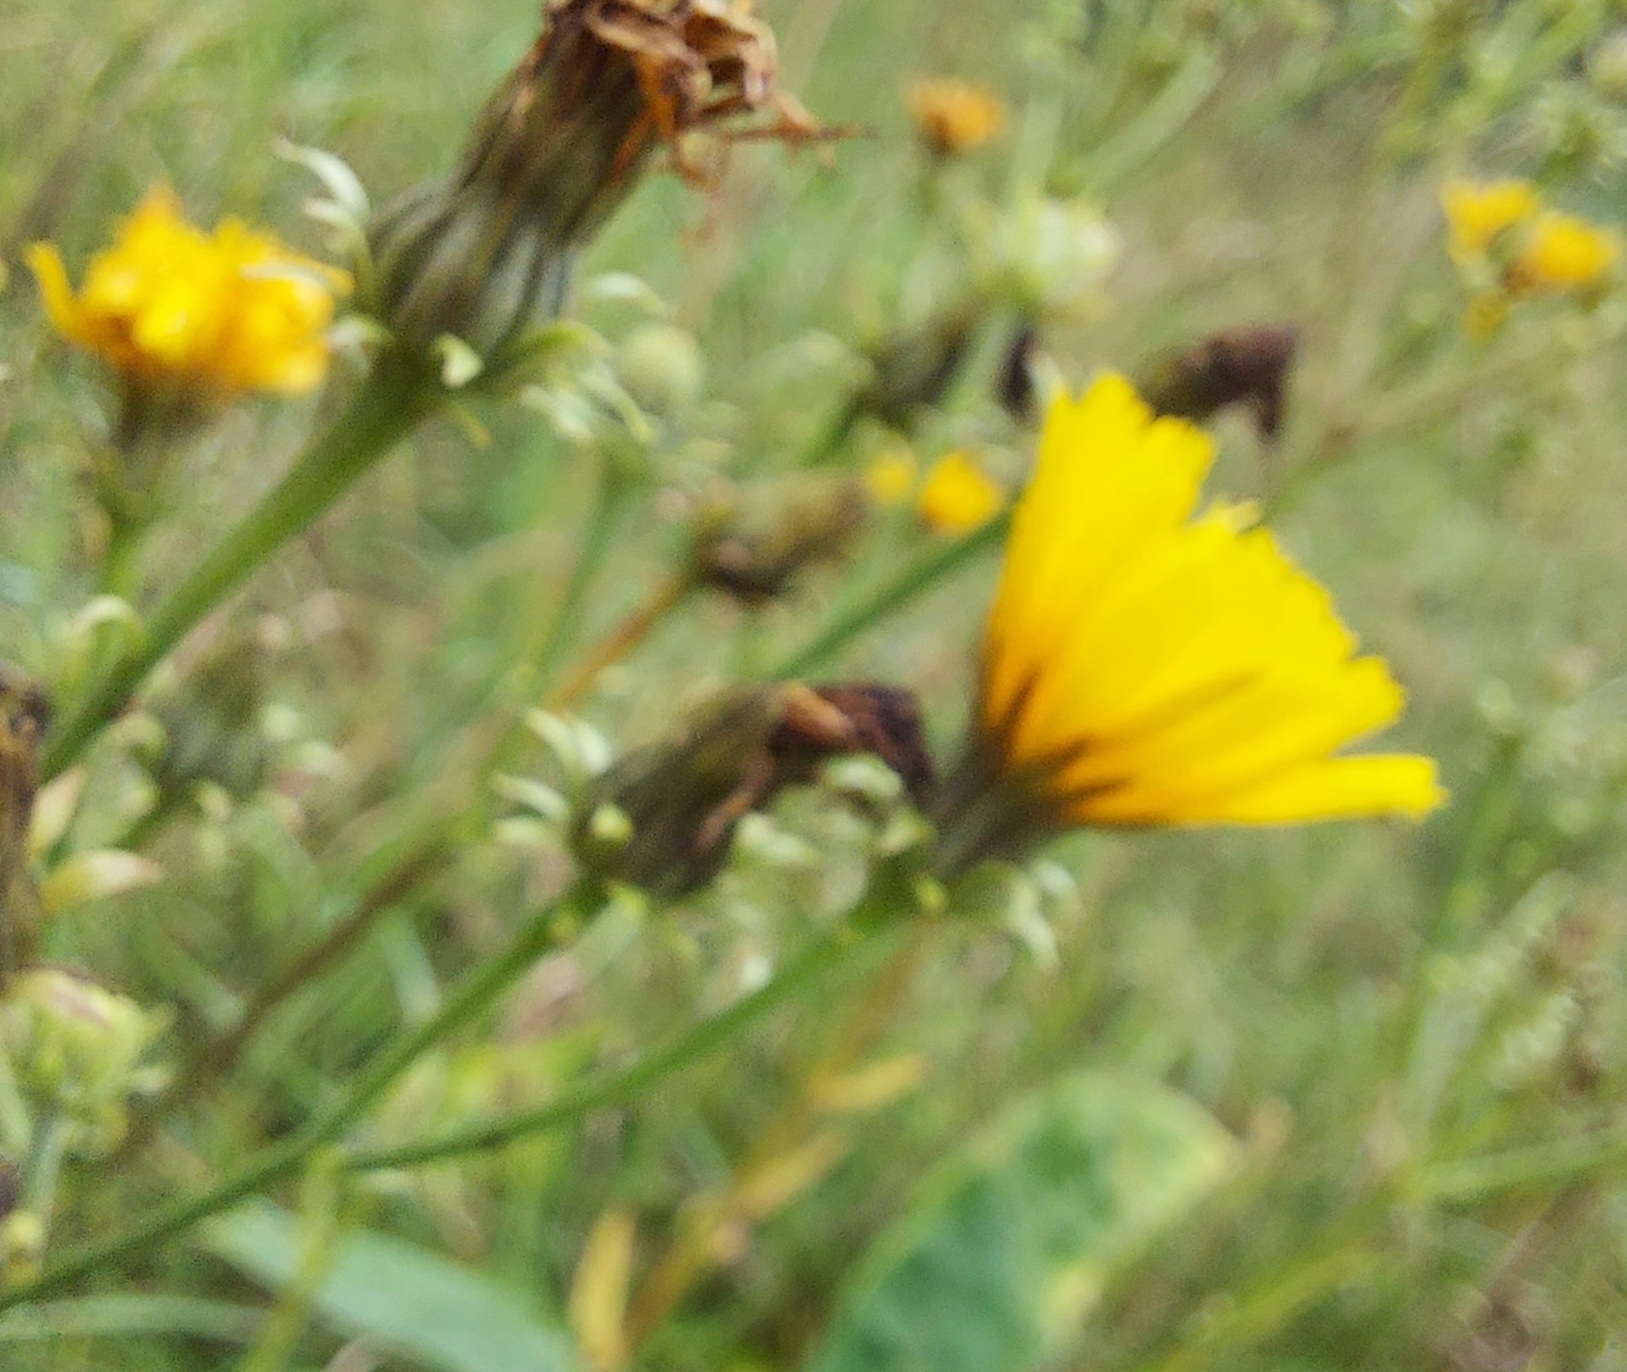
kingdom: Plantae
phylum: Tracheophyta
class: Magnoliopsida
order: Asterales
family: Asteraceae
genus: Picris
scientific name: Picris hieracioides
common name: Hawkweed oxtongue
